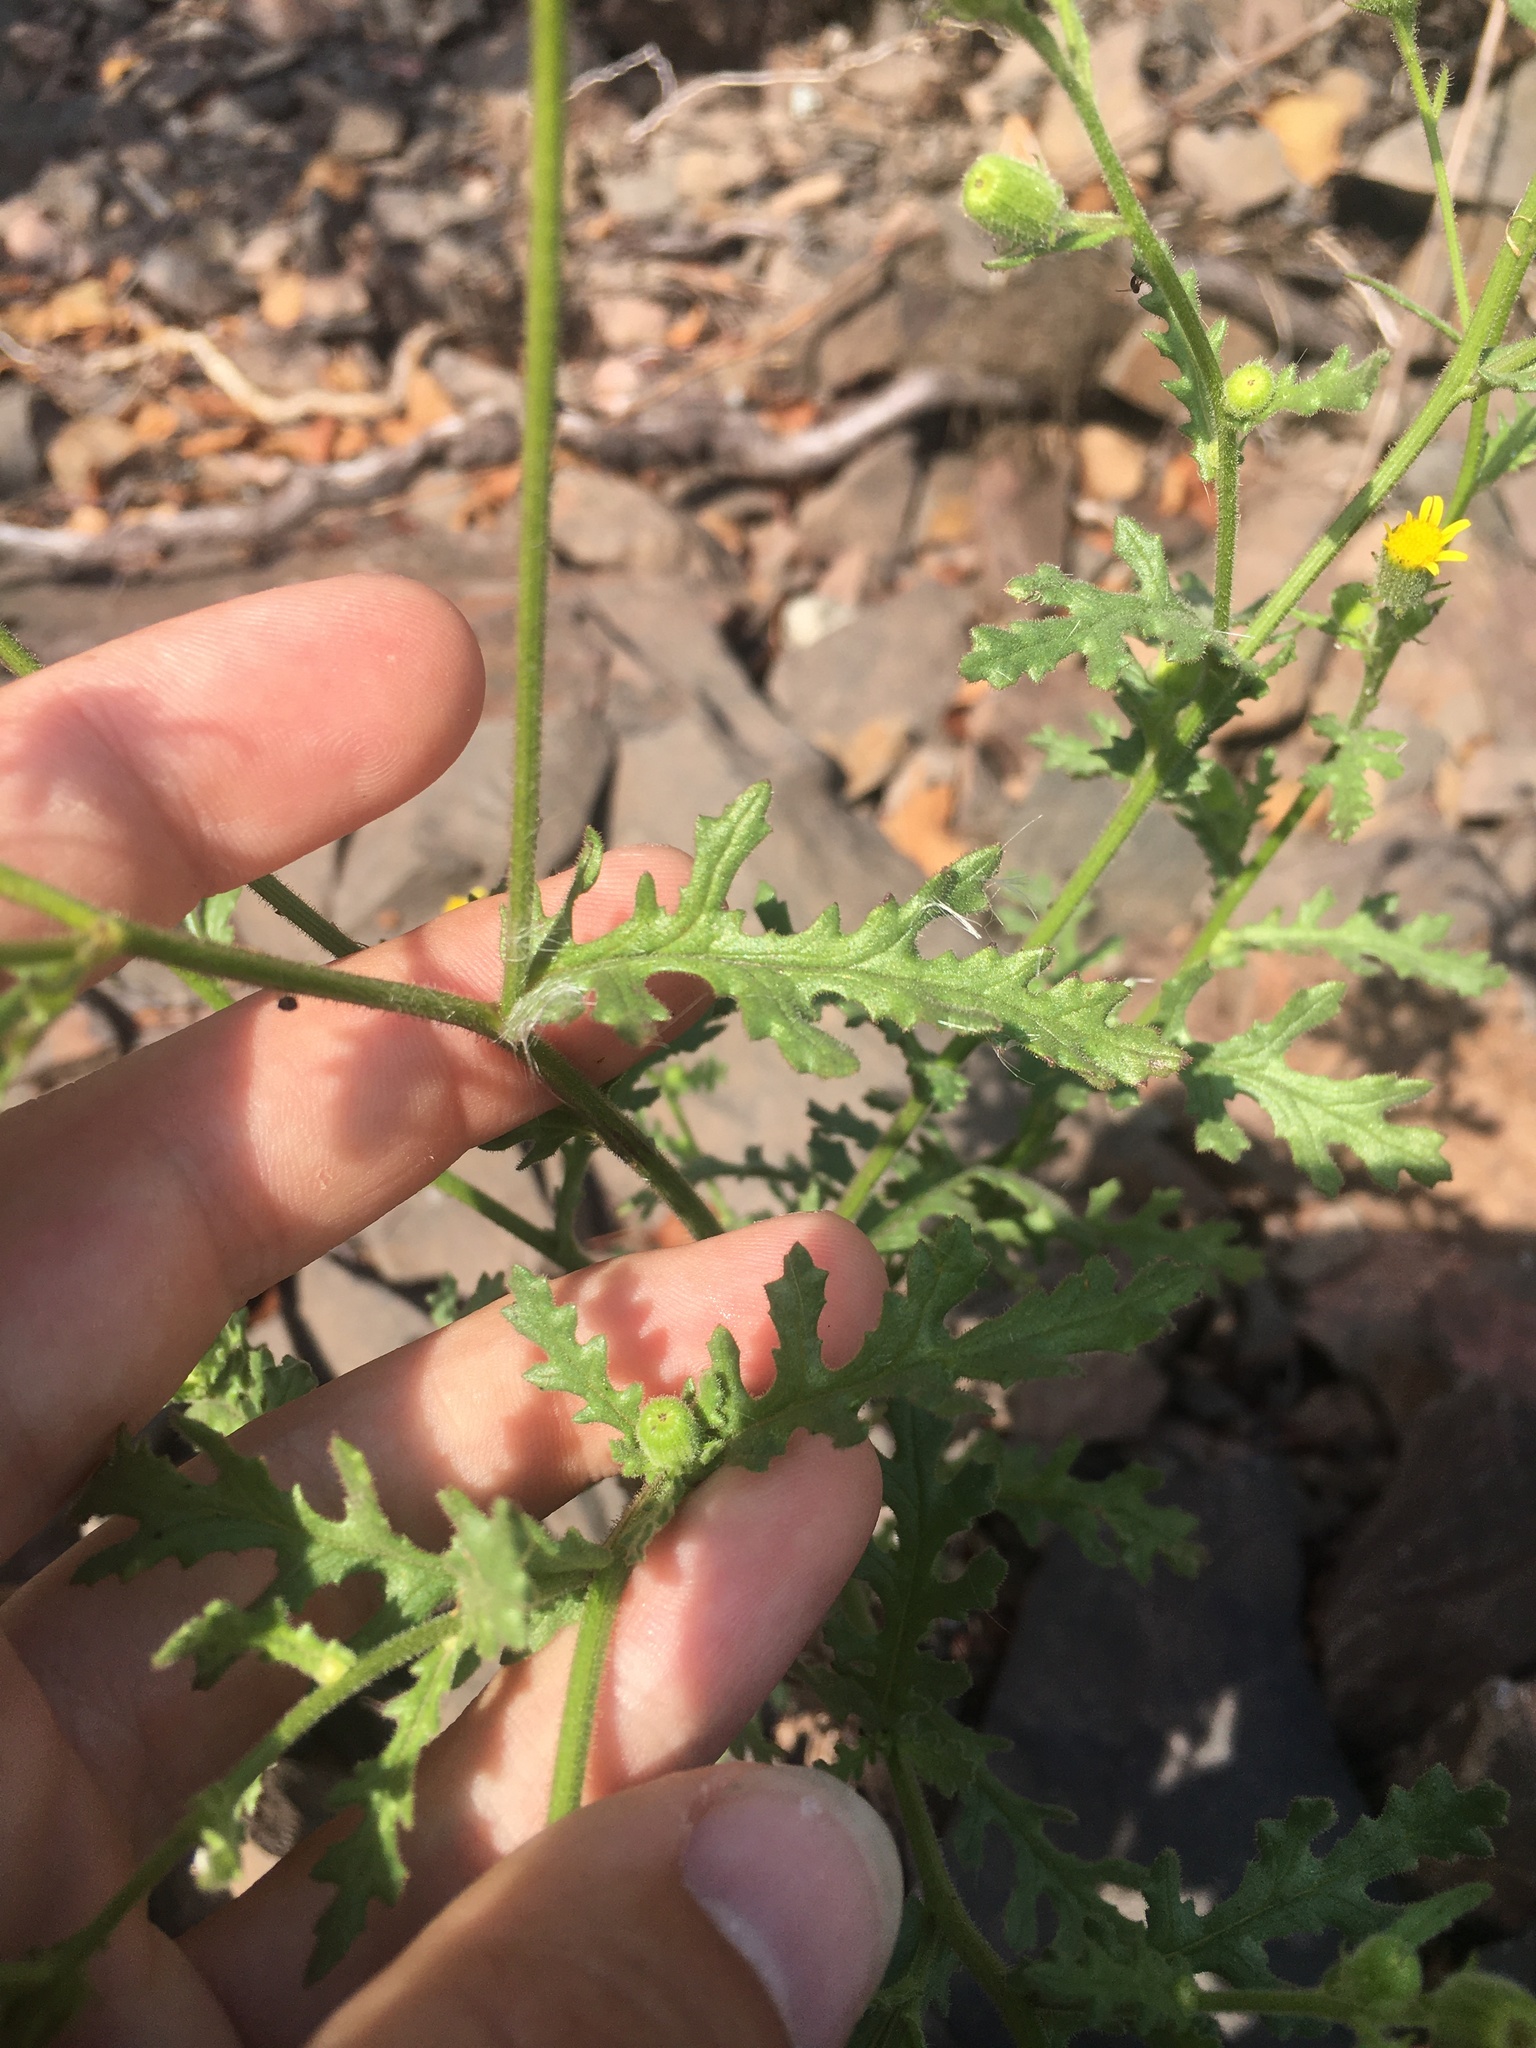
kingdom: Plantae
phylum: Tracheophyta
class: Magnoliopsida
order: Asterales
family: Asteraceae
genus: Senecio
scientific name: Senecio viscosus
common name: Sticky groundsel
